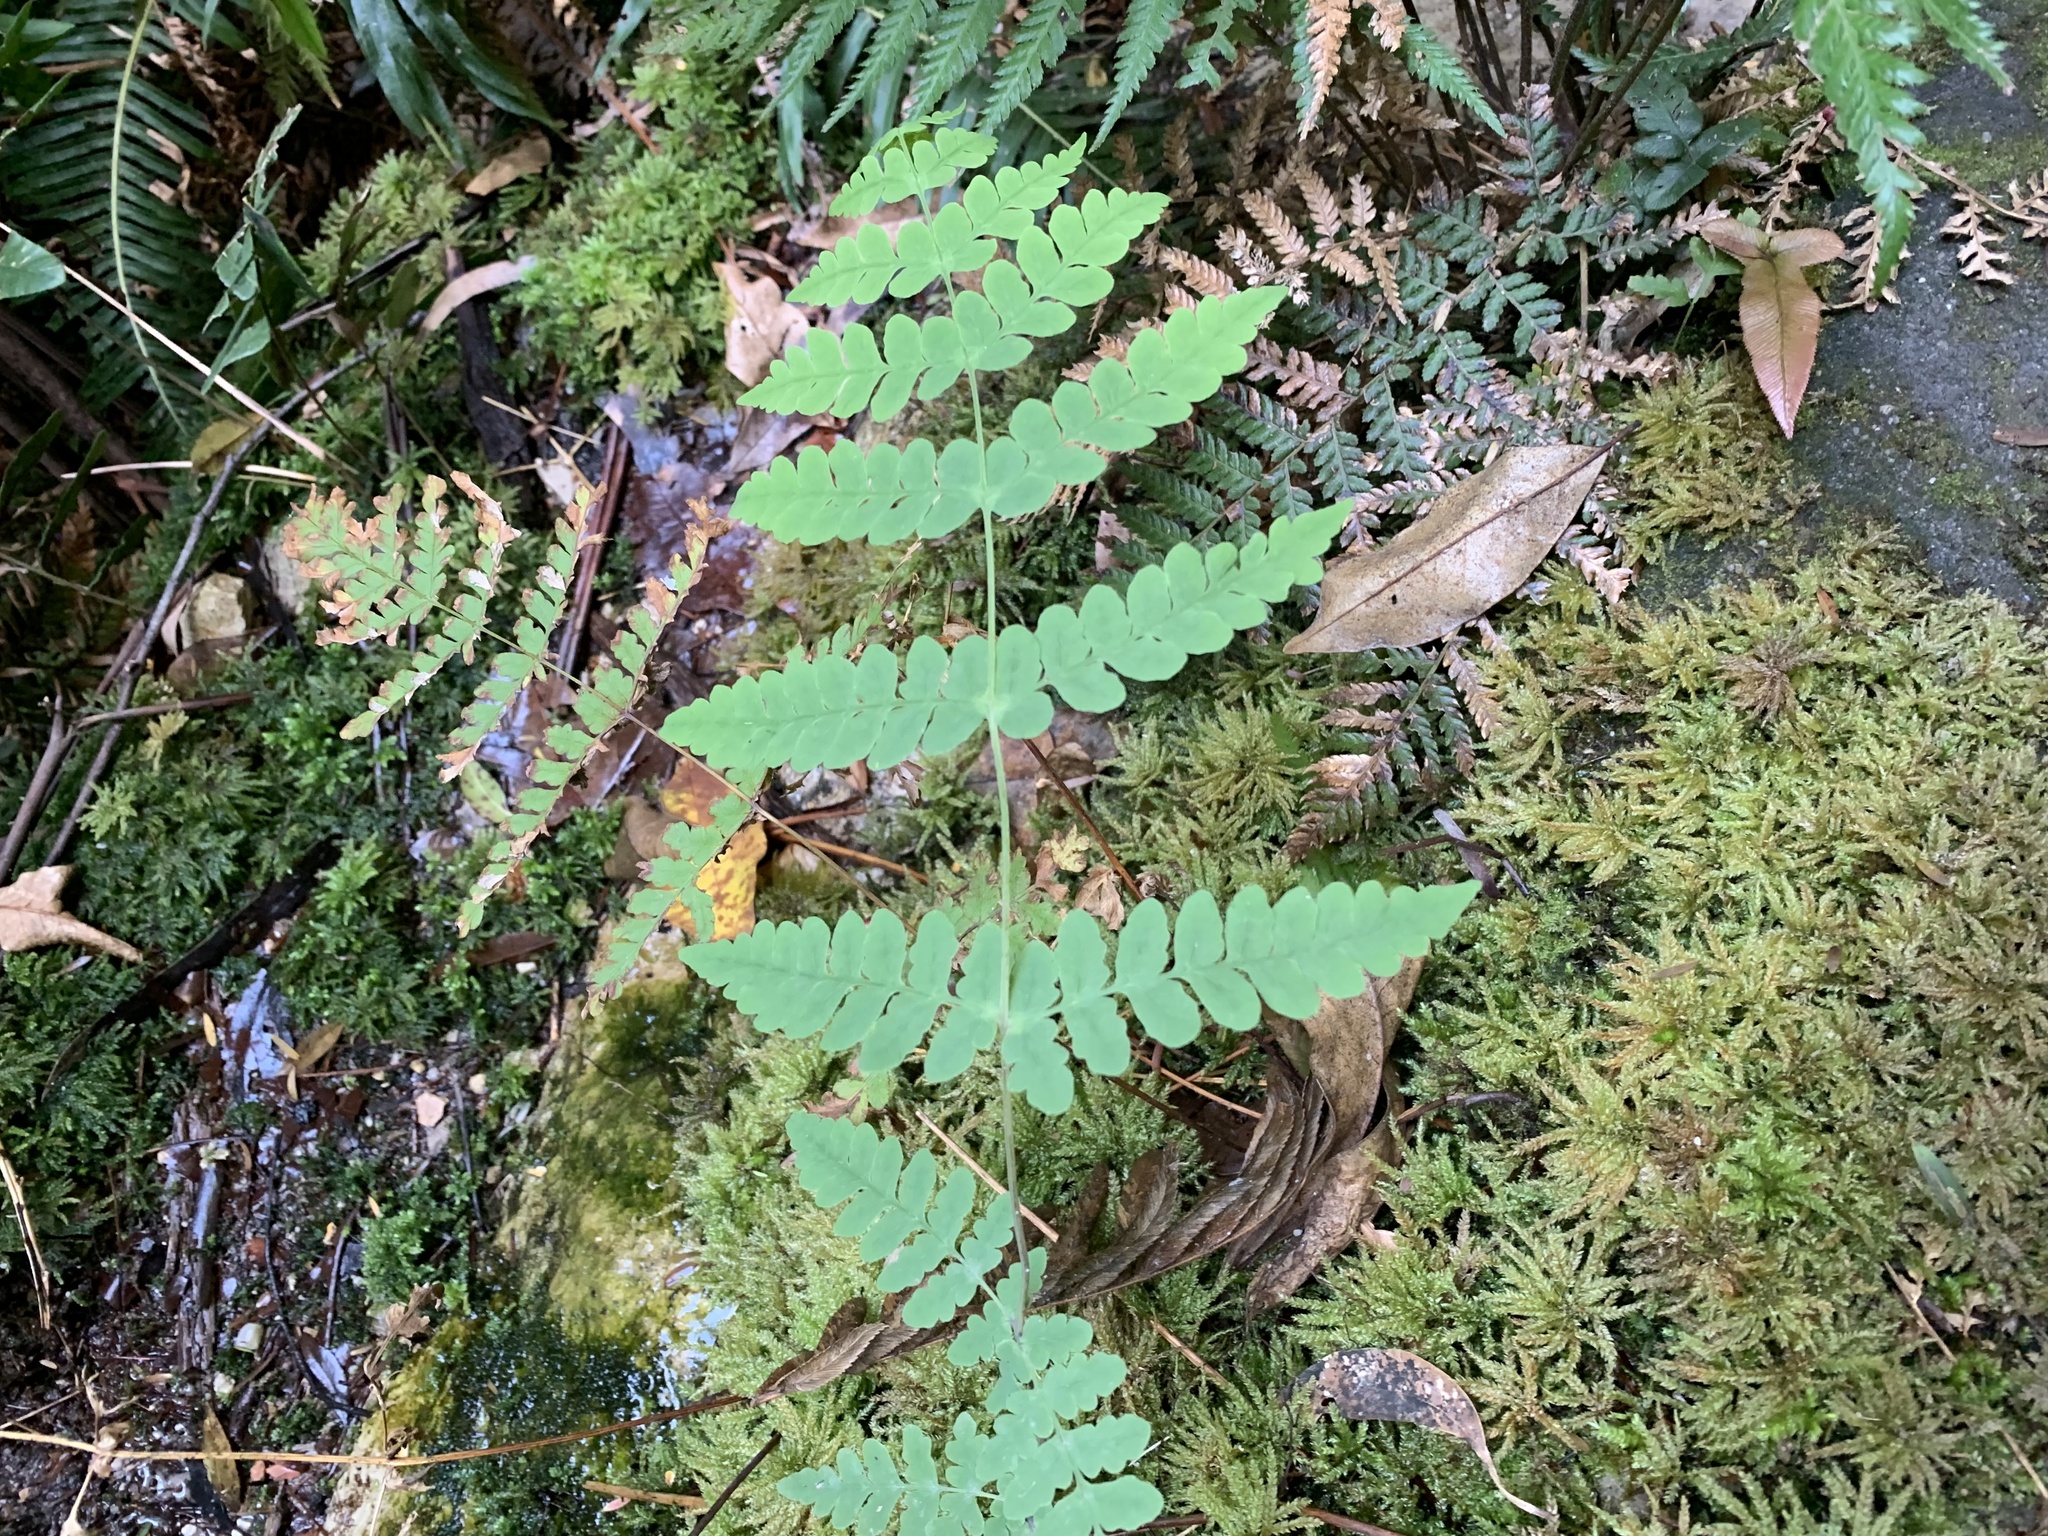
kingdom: Plantae
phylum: Tracheophyta
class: Polypodiopsida
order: Polypodiales
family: Dennstaedtiaceae
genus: Histiopteris
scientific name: Histiopteris incisa
